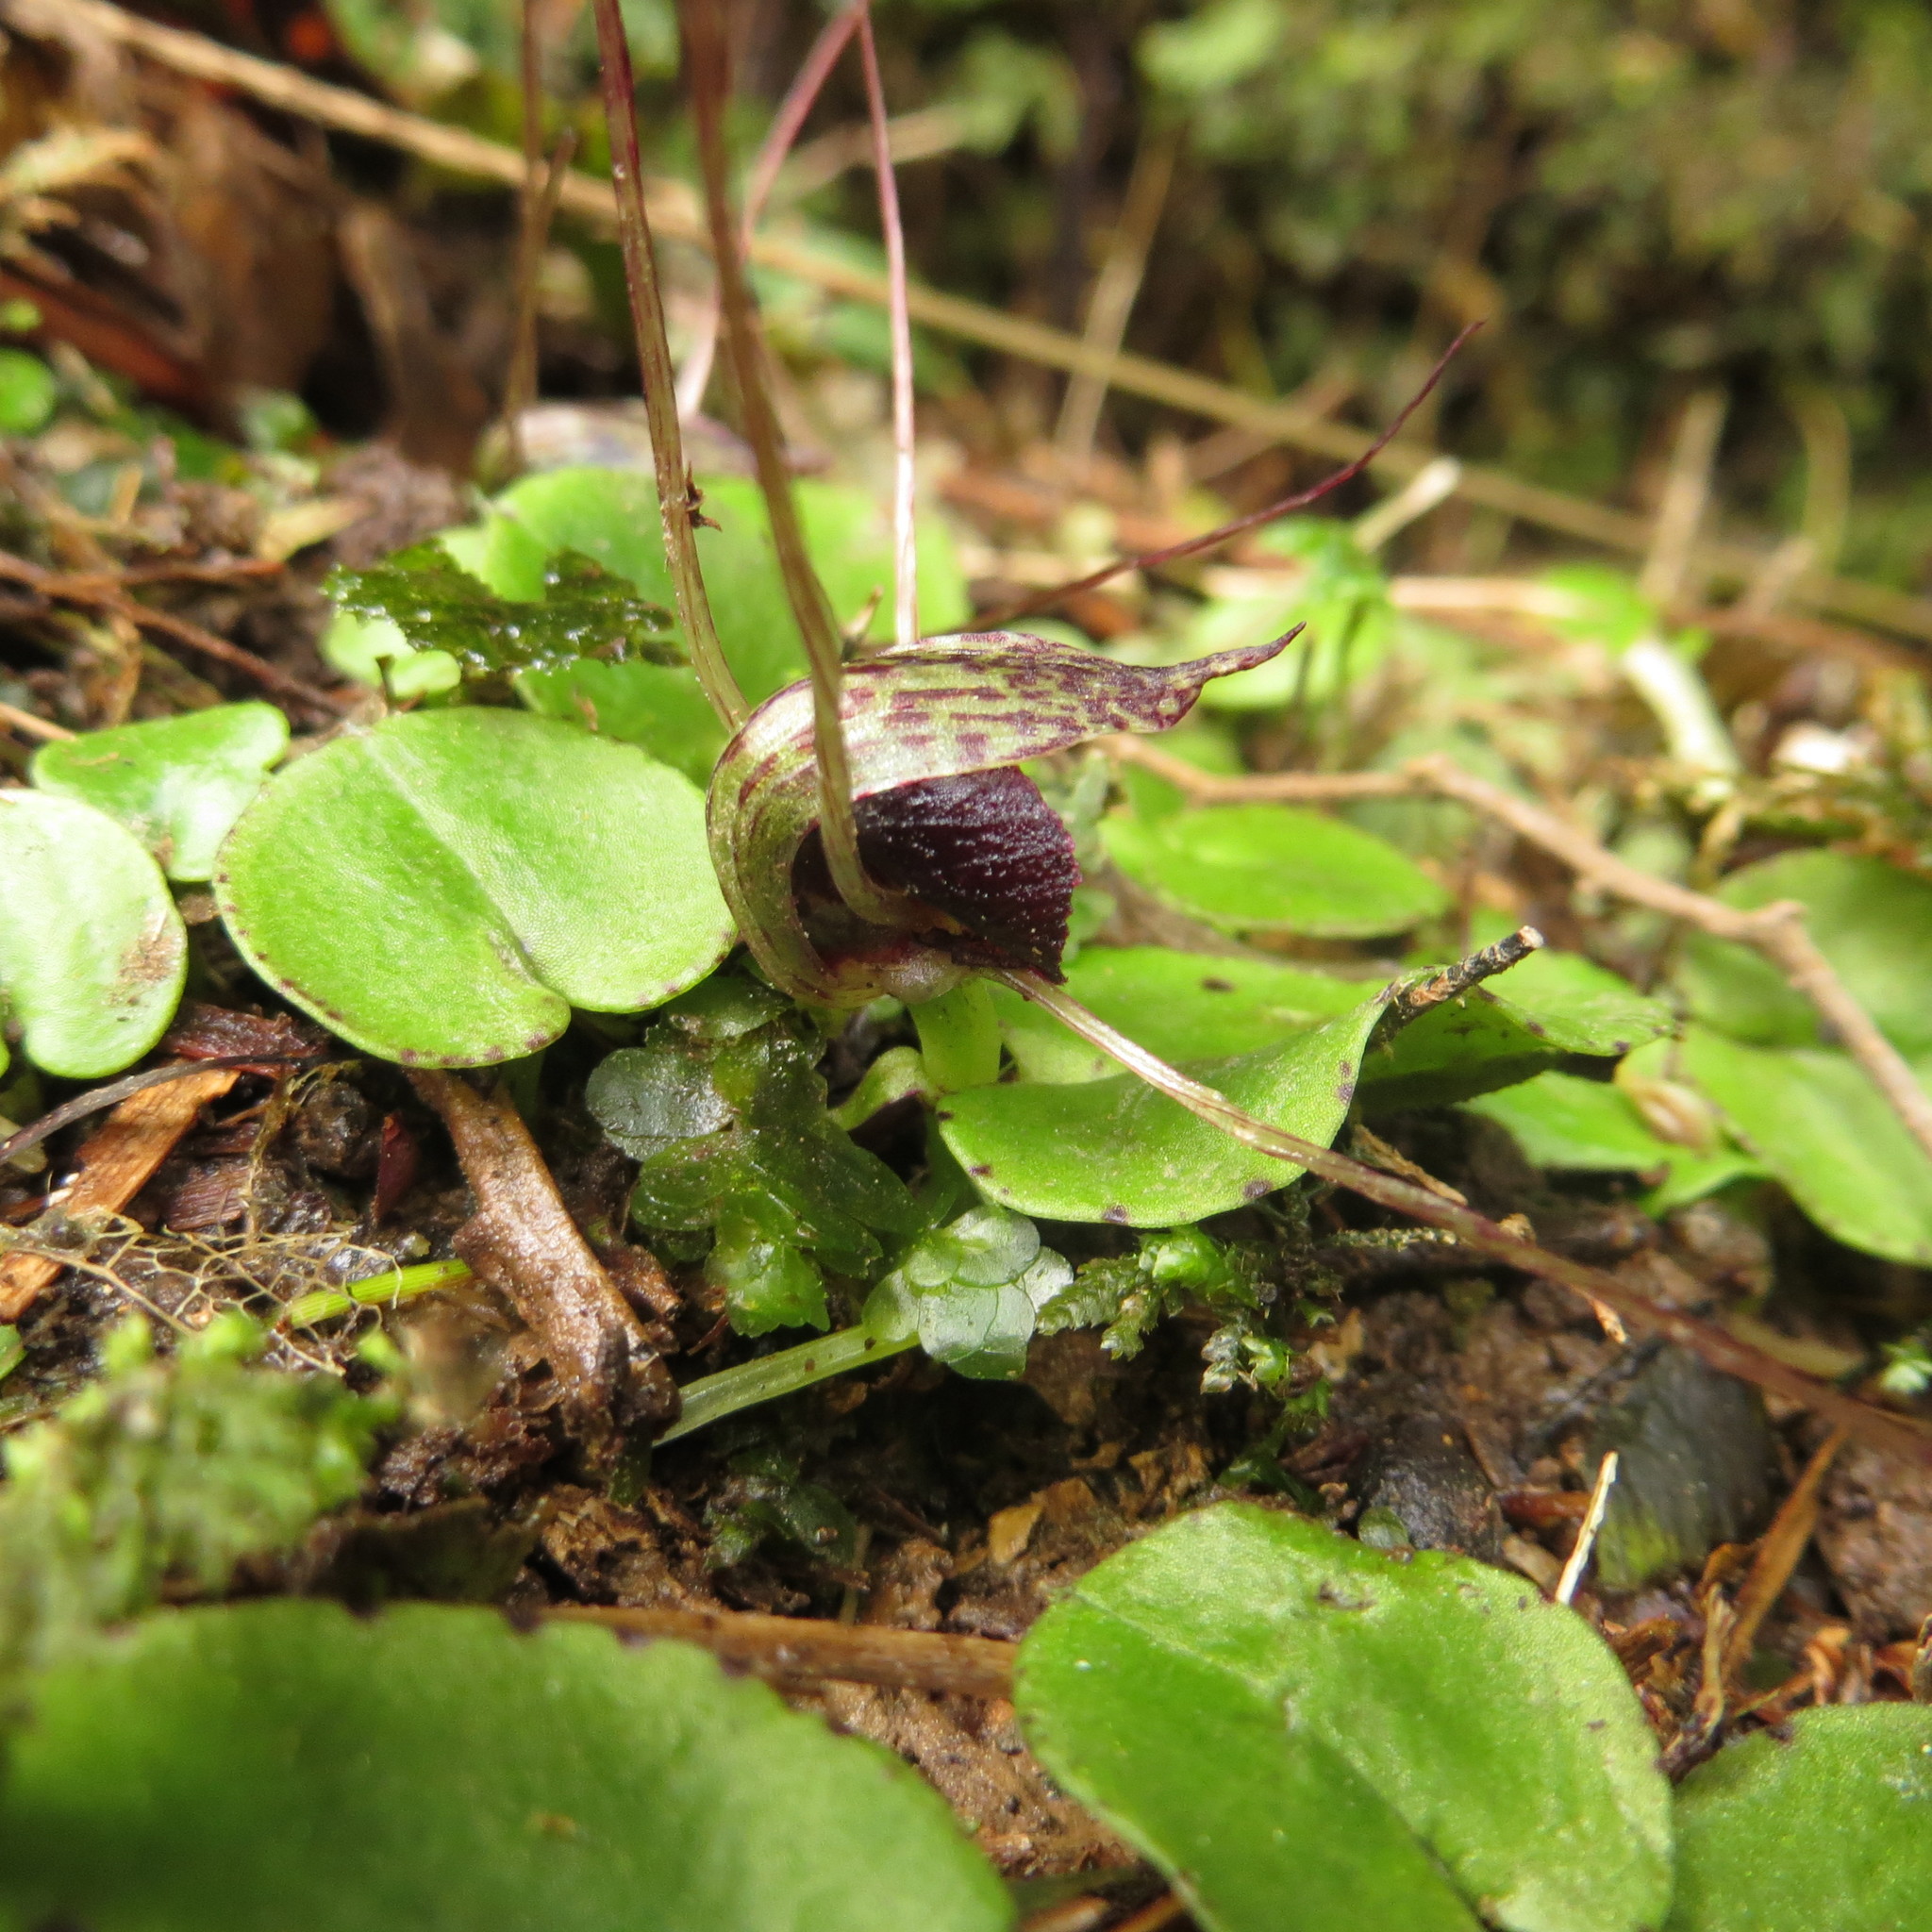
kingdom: Plantae
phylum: Tracheophyta
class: Liliopsida
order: Asparagales
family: Orchidaceae
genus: Corybas
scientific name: Corybas iridescens
